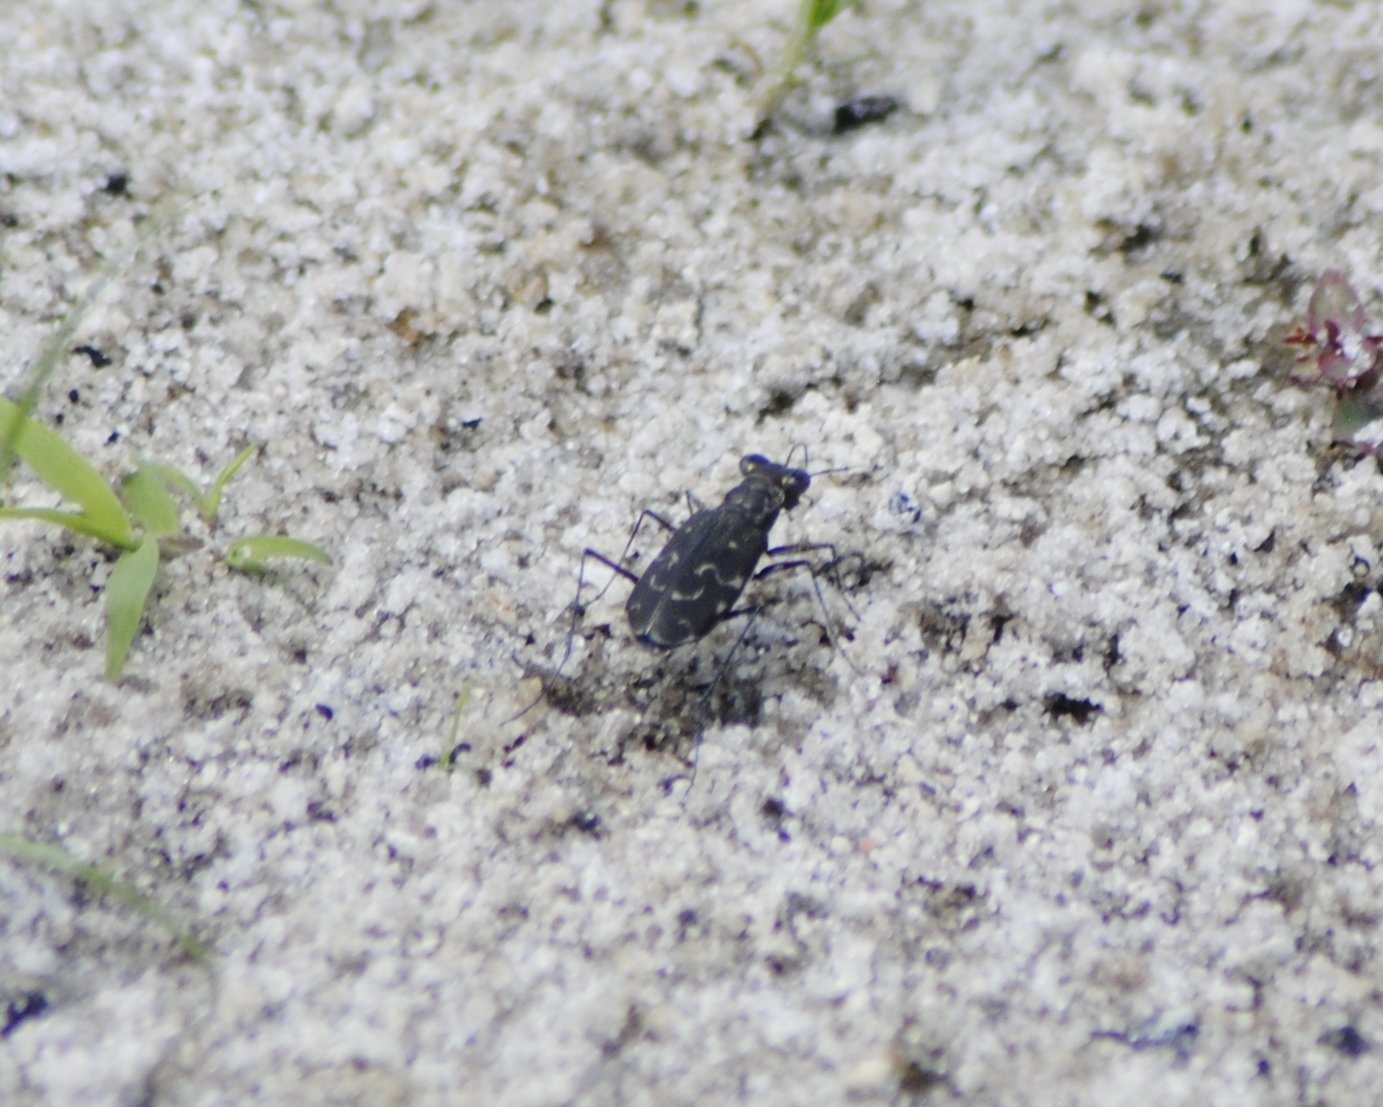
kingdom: Animalia
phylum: Arthropoda
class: Insecta
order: Coleoptera
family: Carabidae
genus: Cicindela
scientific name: Cicindela trifasciata
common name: Mudflat tiger beetle
